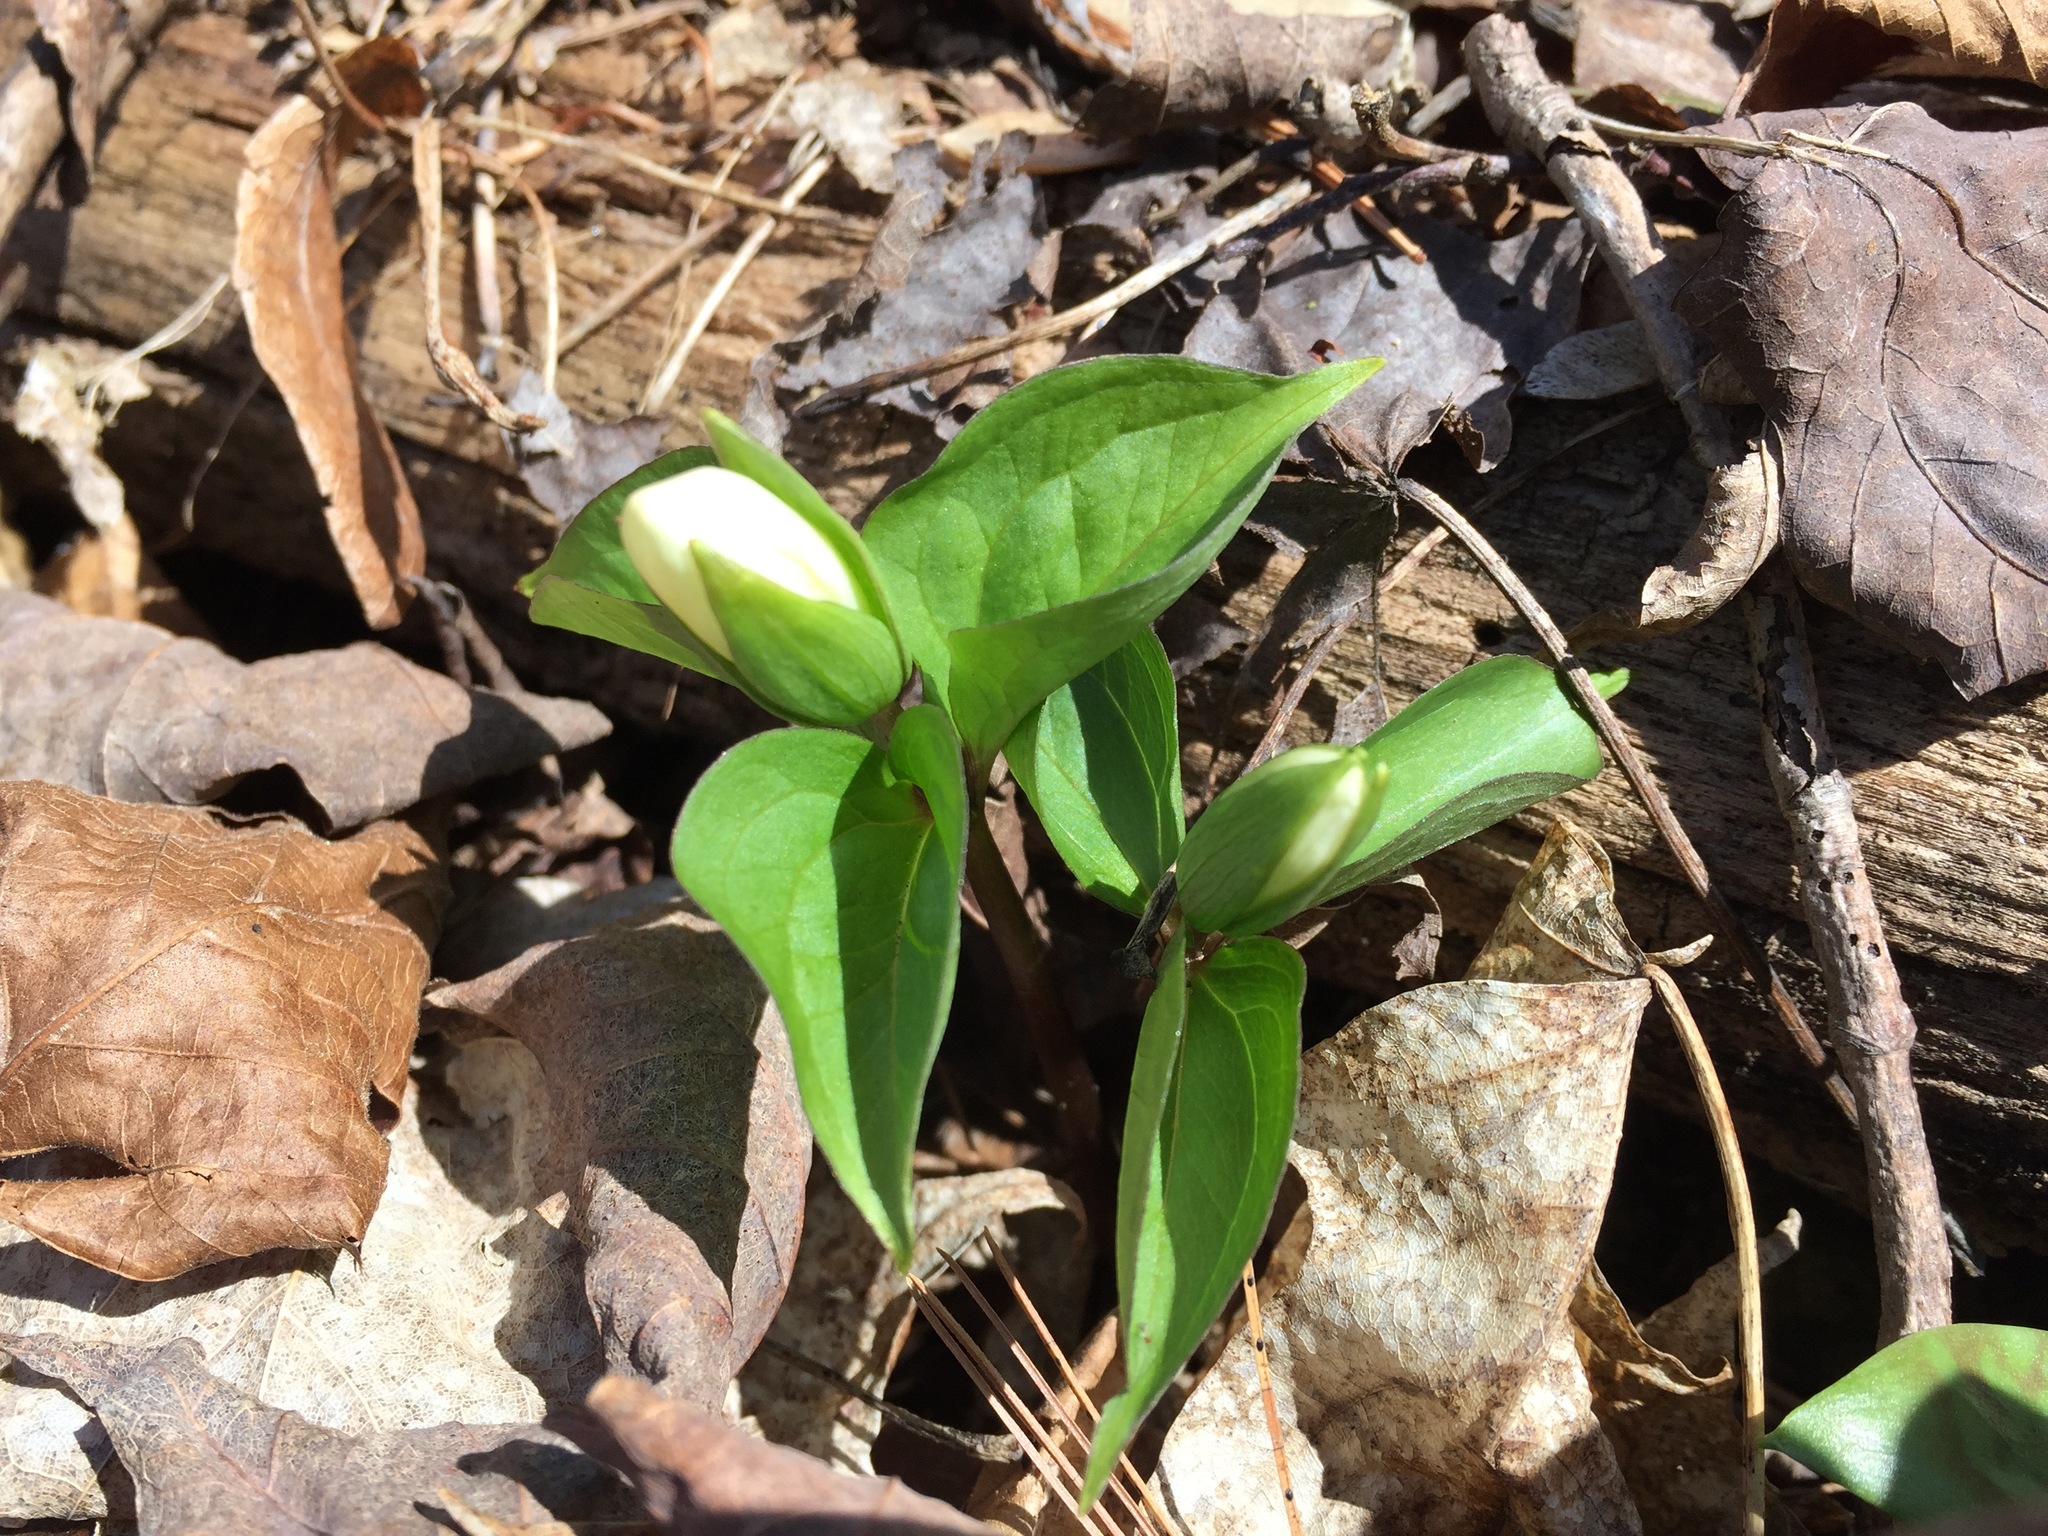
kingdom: Plantae
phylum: Tracheophyta
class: Liliopsida
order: Liliales
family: Melanthiaceae
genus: Trillium
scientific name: Trillium grandiflorum
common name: Great white trillium
